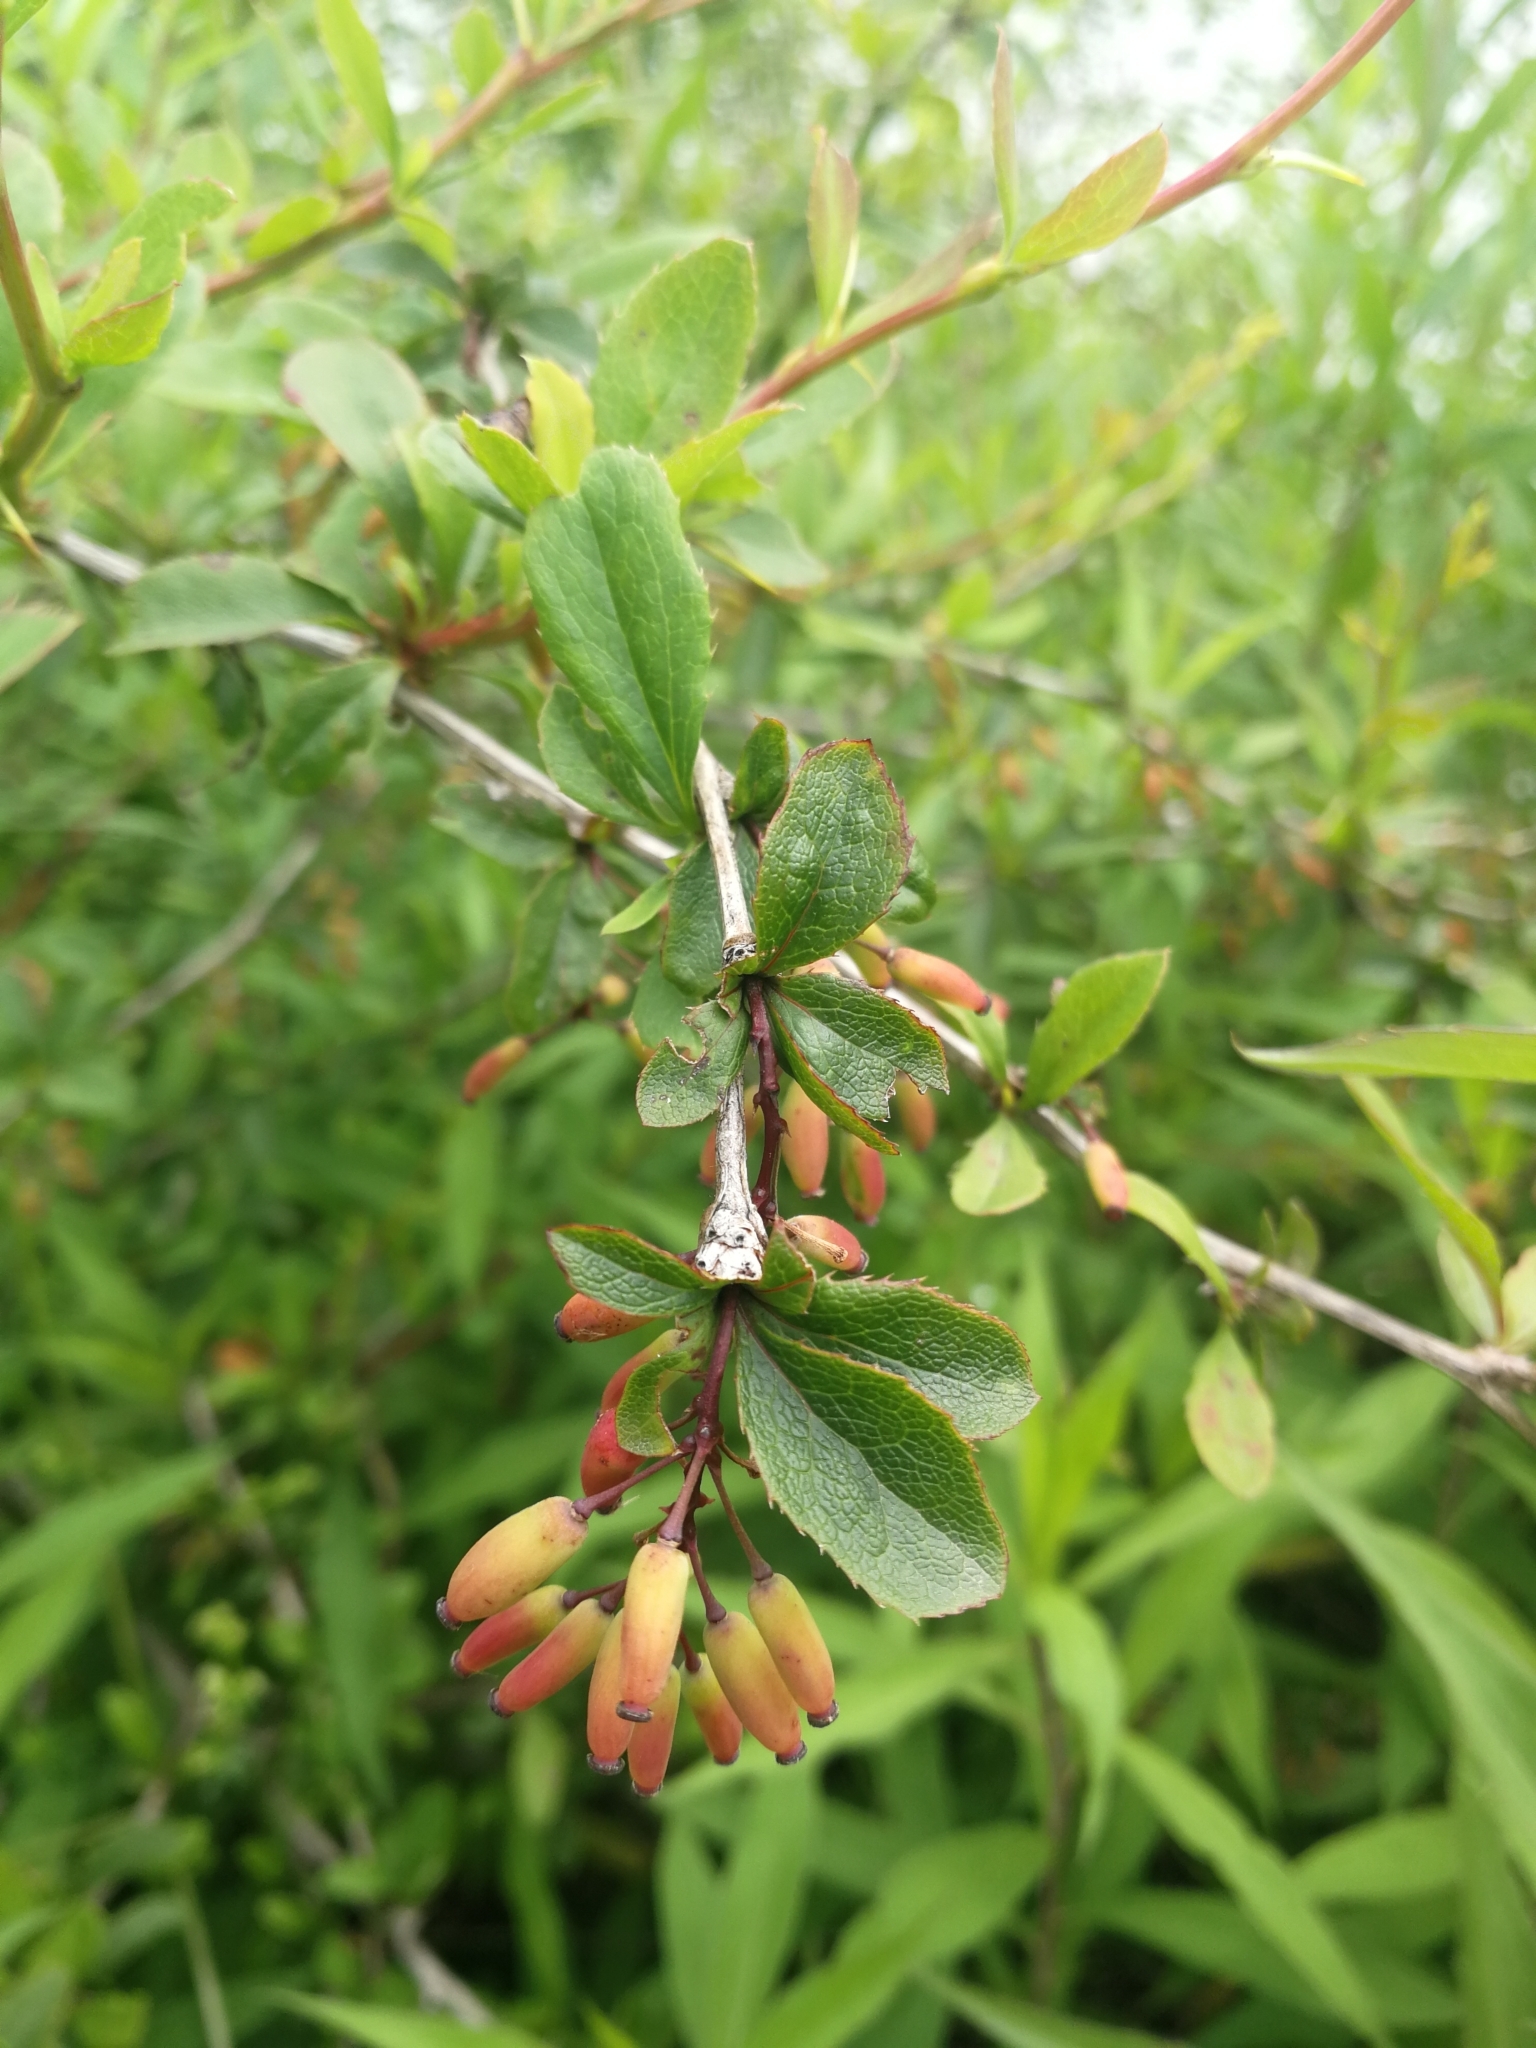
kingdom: Plantae
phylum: Tracheophyta
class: Magnoliopsida
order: Ranunculales
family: Berberidaceae
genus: Berberis
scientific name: Berberis vulgaris
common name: Barberry
